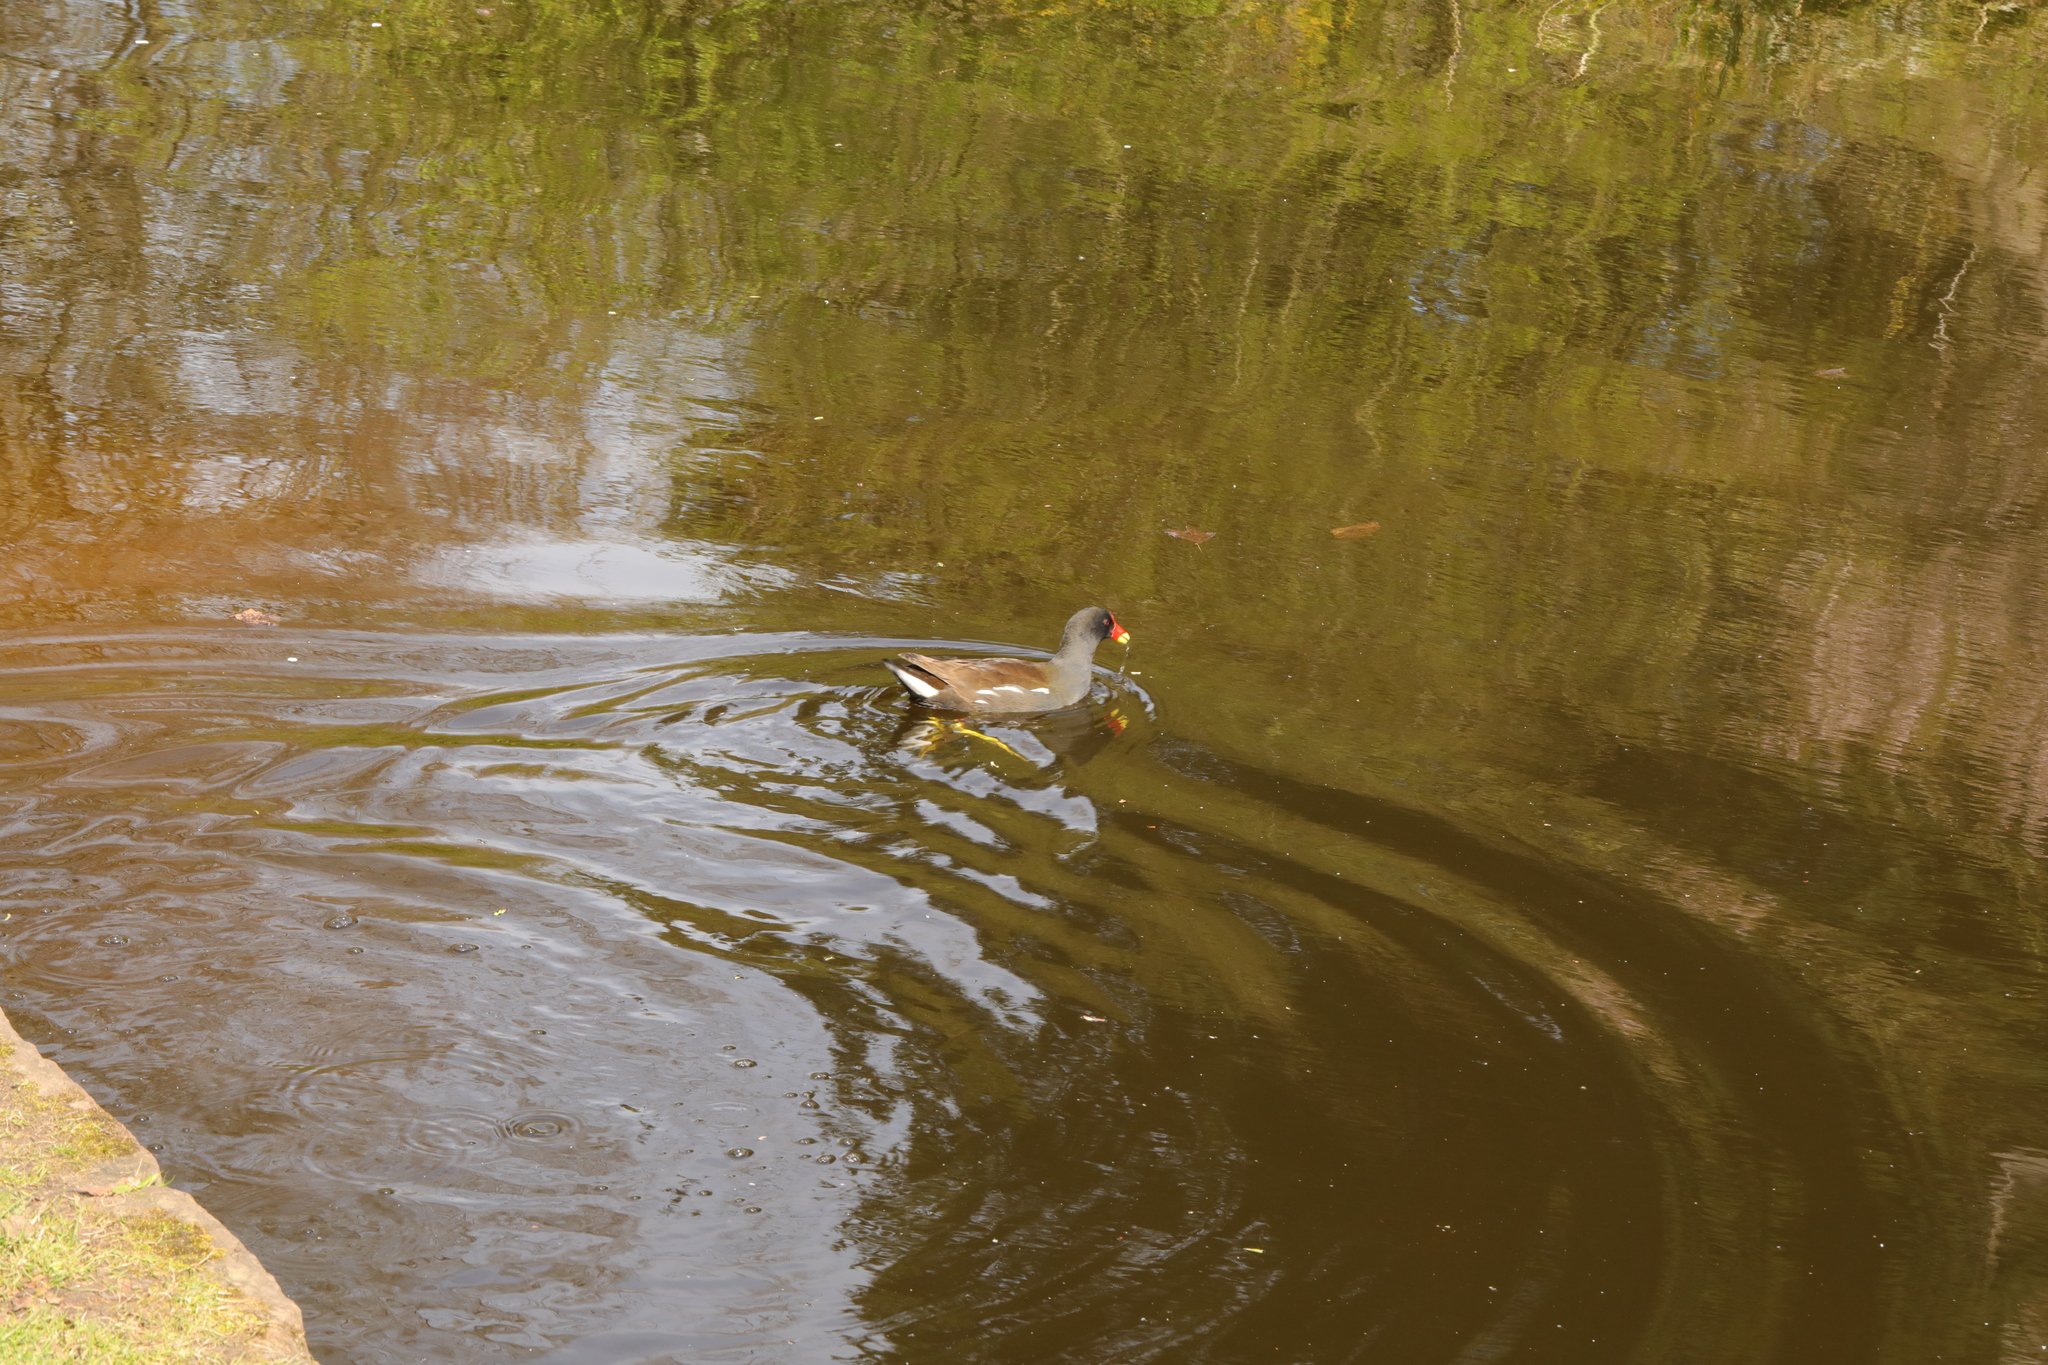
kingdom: Animalia
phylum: Chordata
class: Aves
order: Gruiformes
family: Rallidae
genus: Gallinula
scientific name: Gallinula chloropus
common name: Common moorhen
